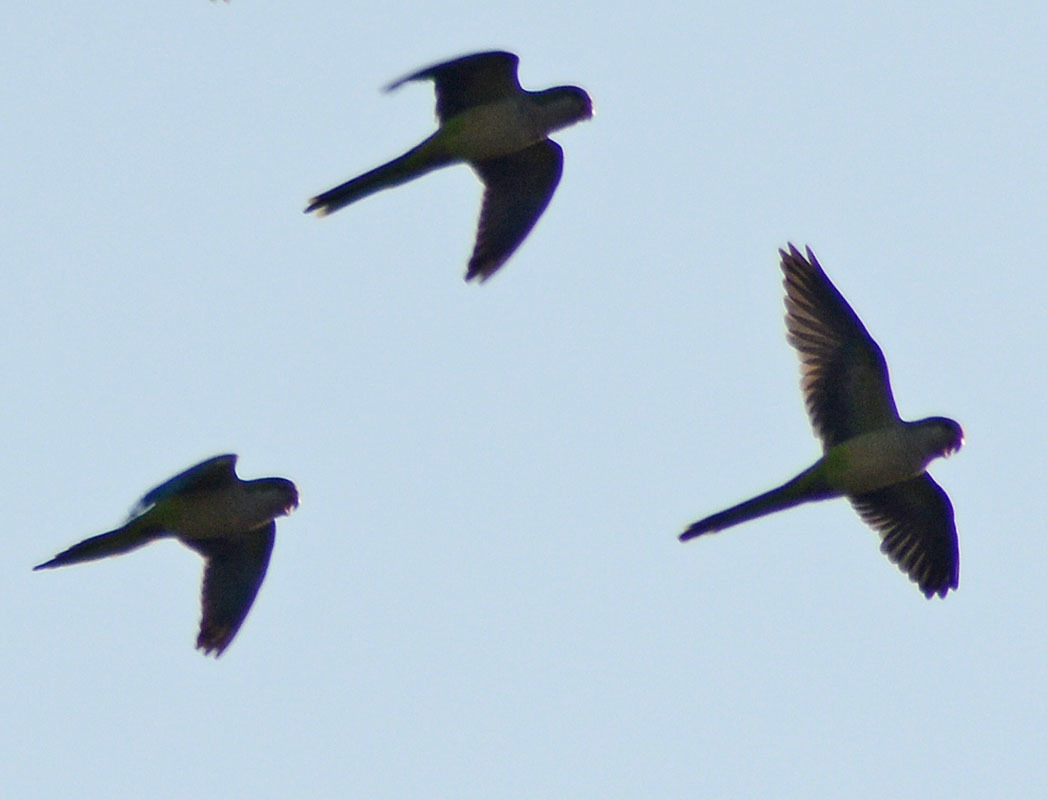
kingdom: Animalia
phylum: Chordata
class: Aves
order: Psittaciformes
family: Psittacidae
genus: Myiopsitta
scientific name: Myiopsitta monachus
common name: Monk parakeet
